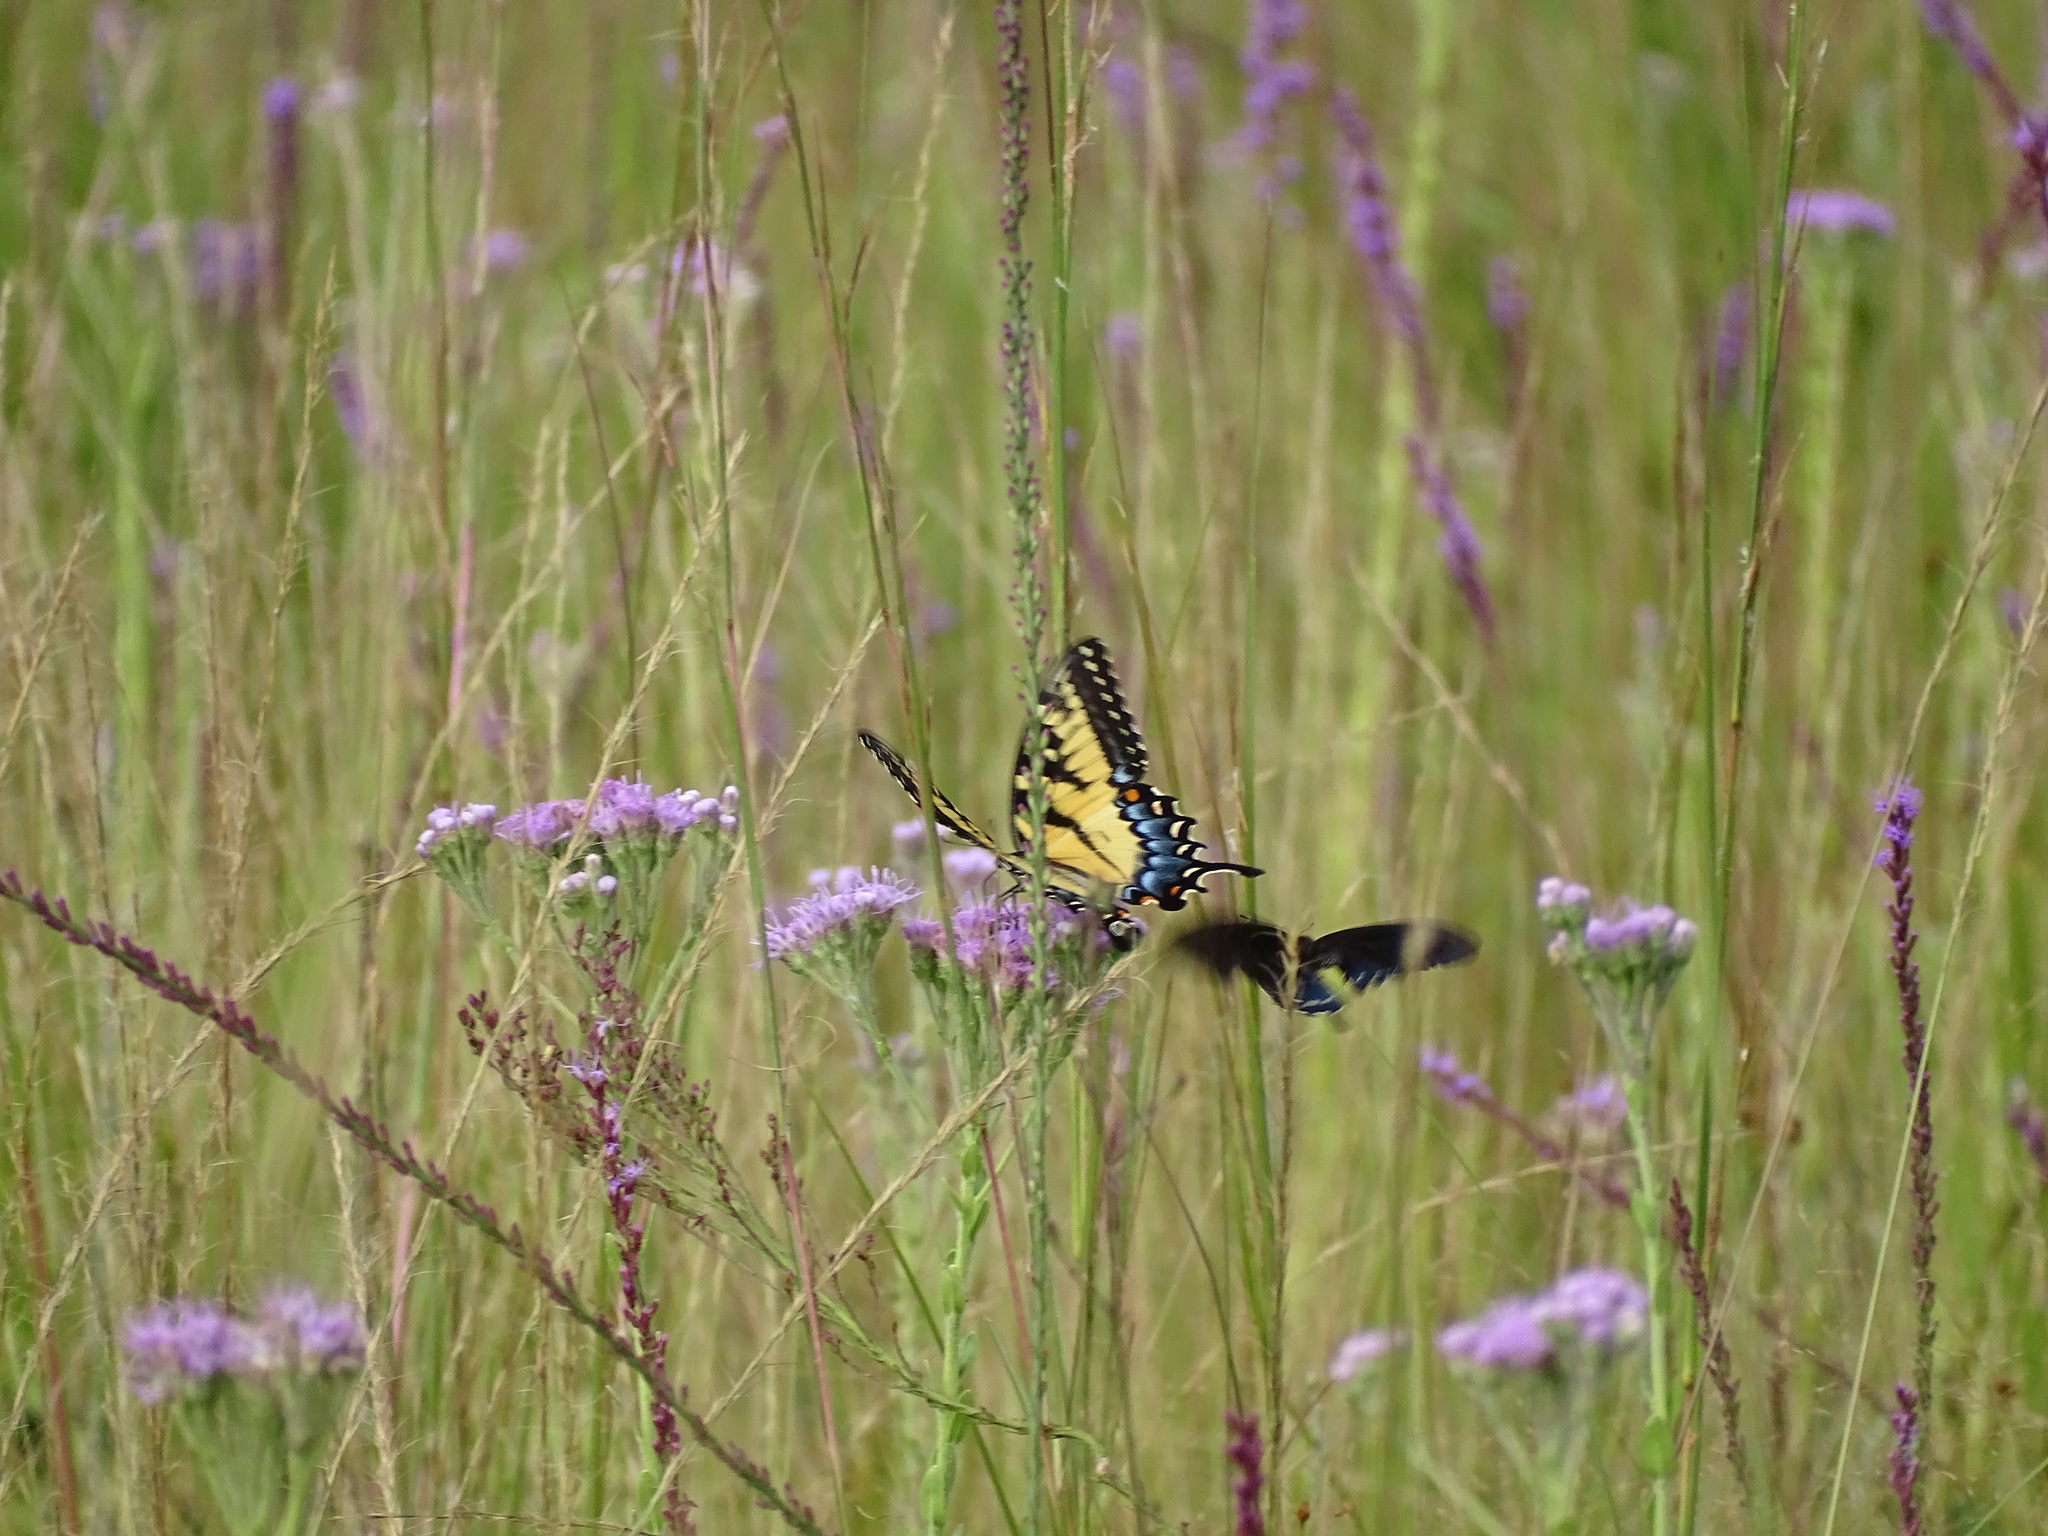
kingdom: Animalia
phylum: Arthropoda
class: Insecta
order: Lepidoptera
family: Papilionidae
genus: Papilio
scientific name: Papilio glaucus
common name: Tiger swallowtail
